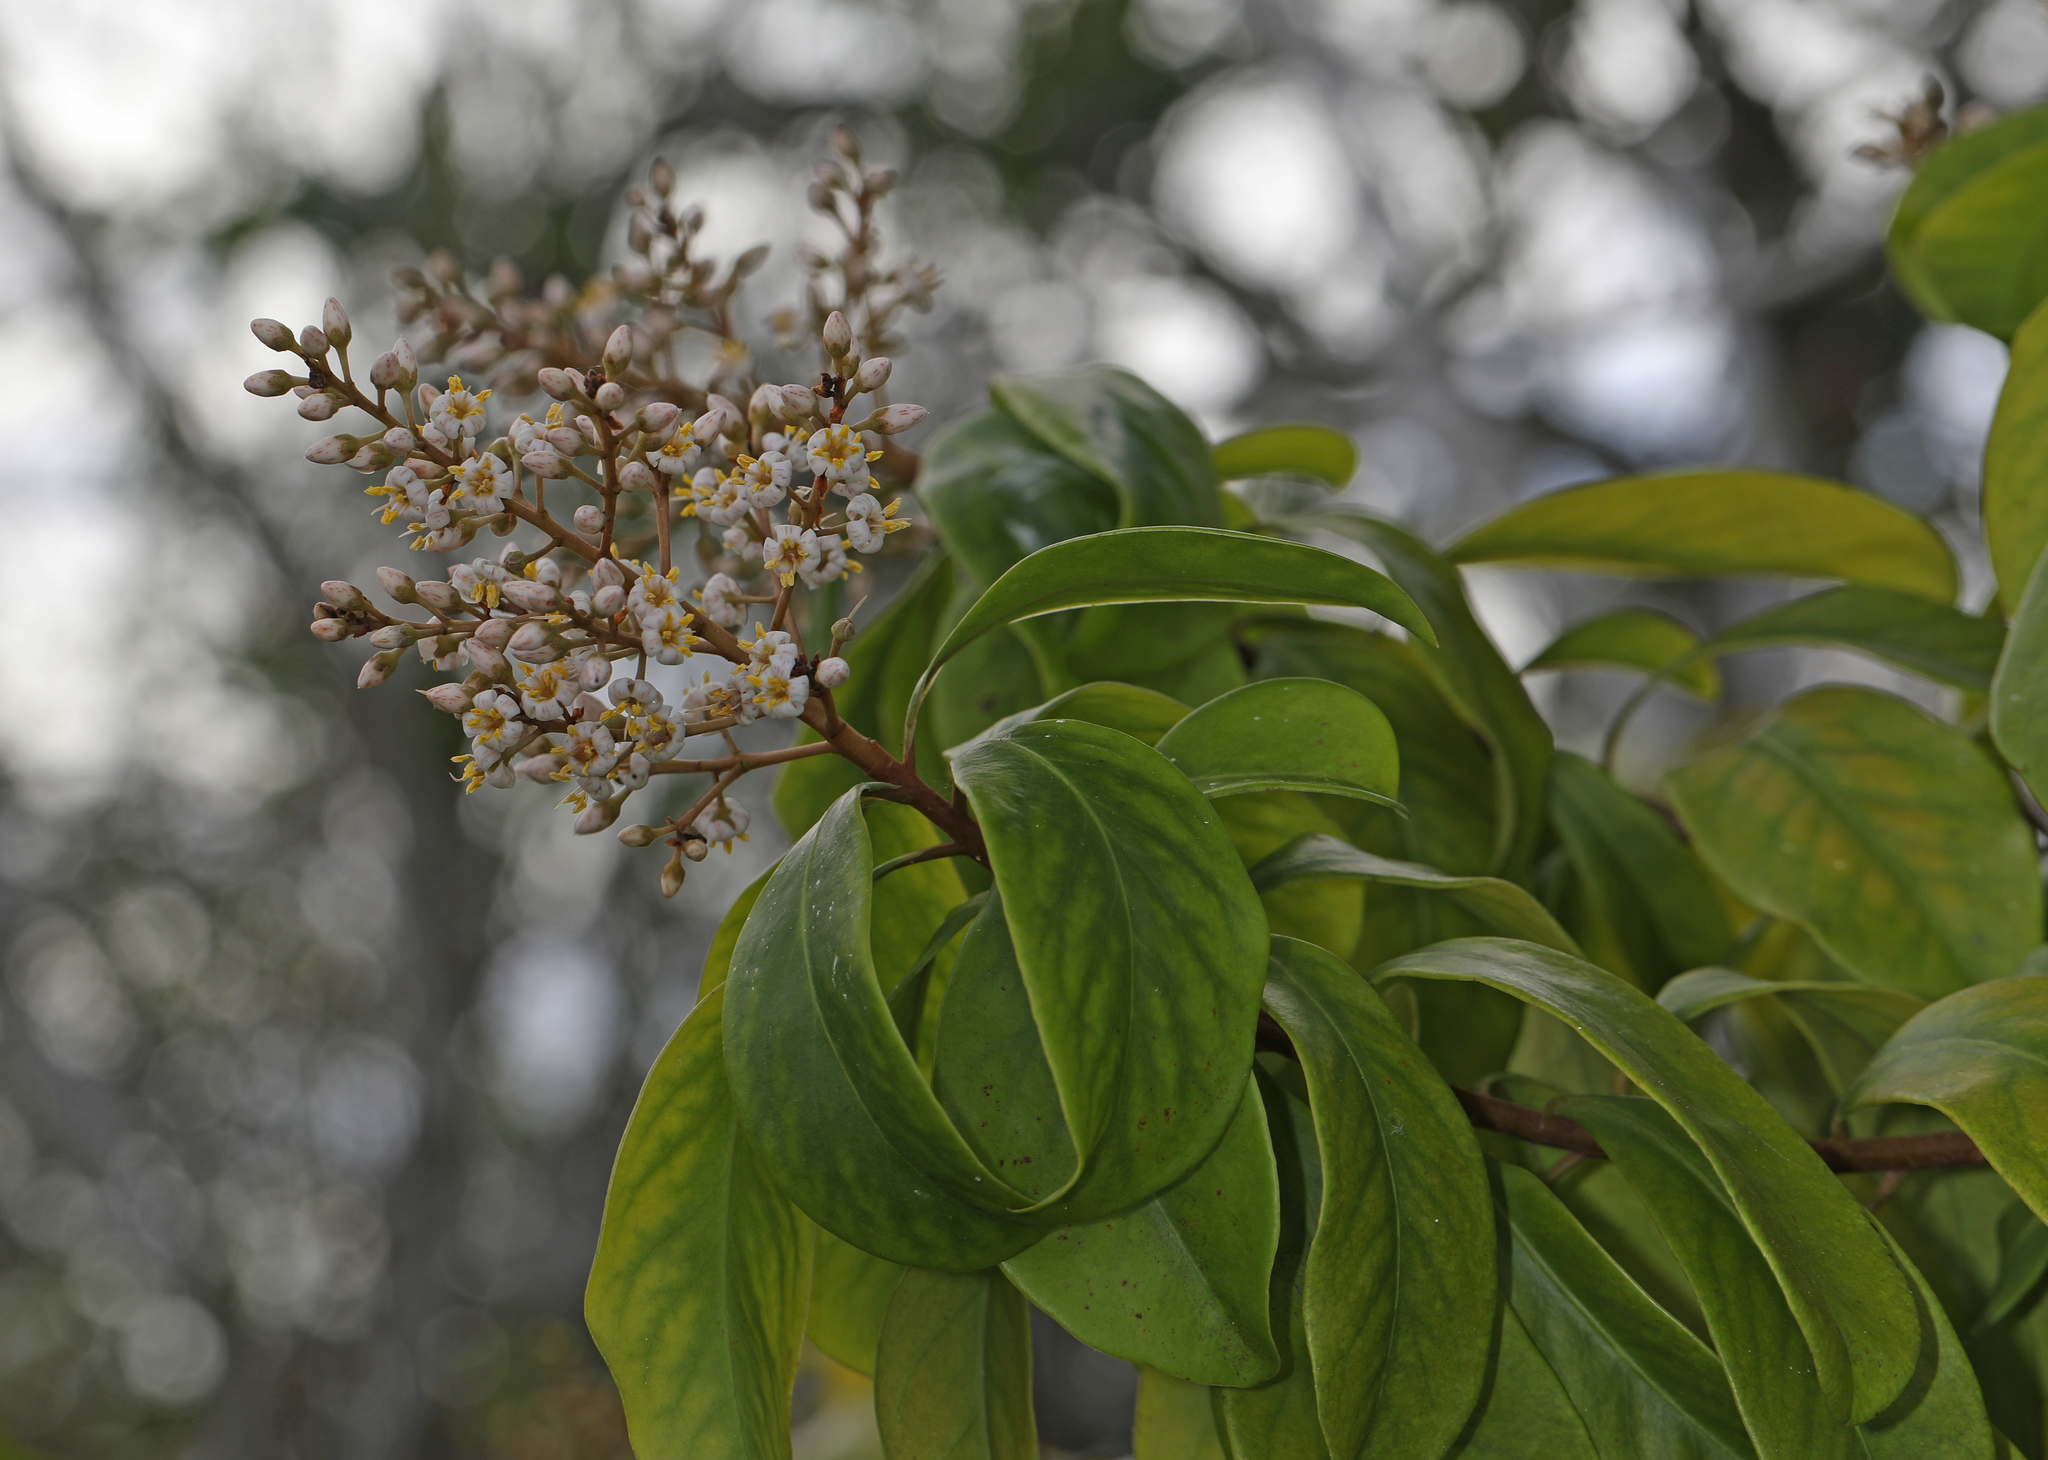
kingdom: Plantae
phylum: Tracheophyta
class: Magnoliopsida
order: Ericales
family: Primulaceae
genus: Ardisia
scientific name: Ardisia escallonioides
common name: Island marlberry
